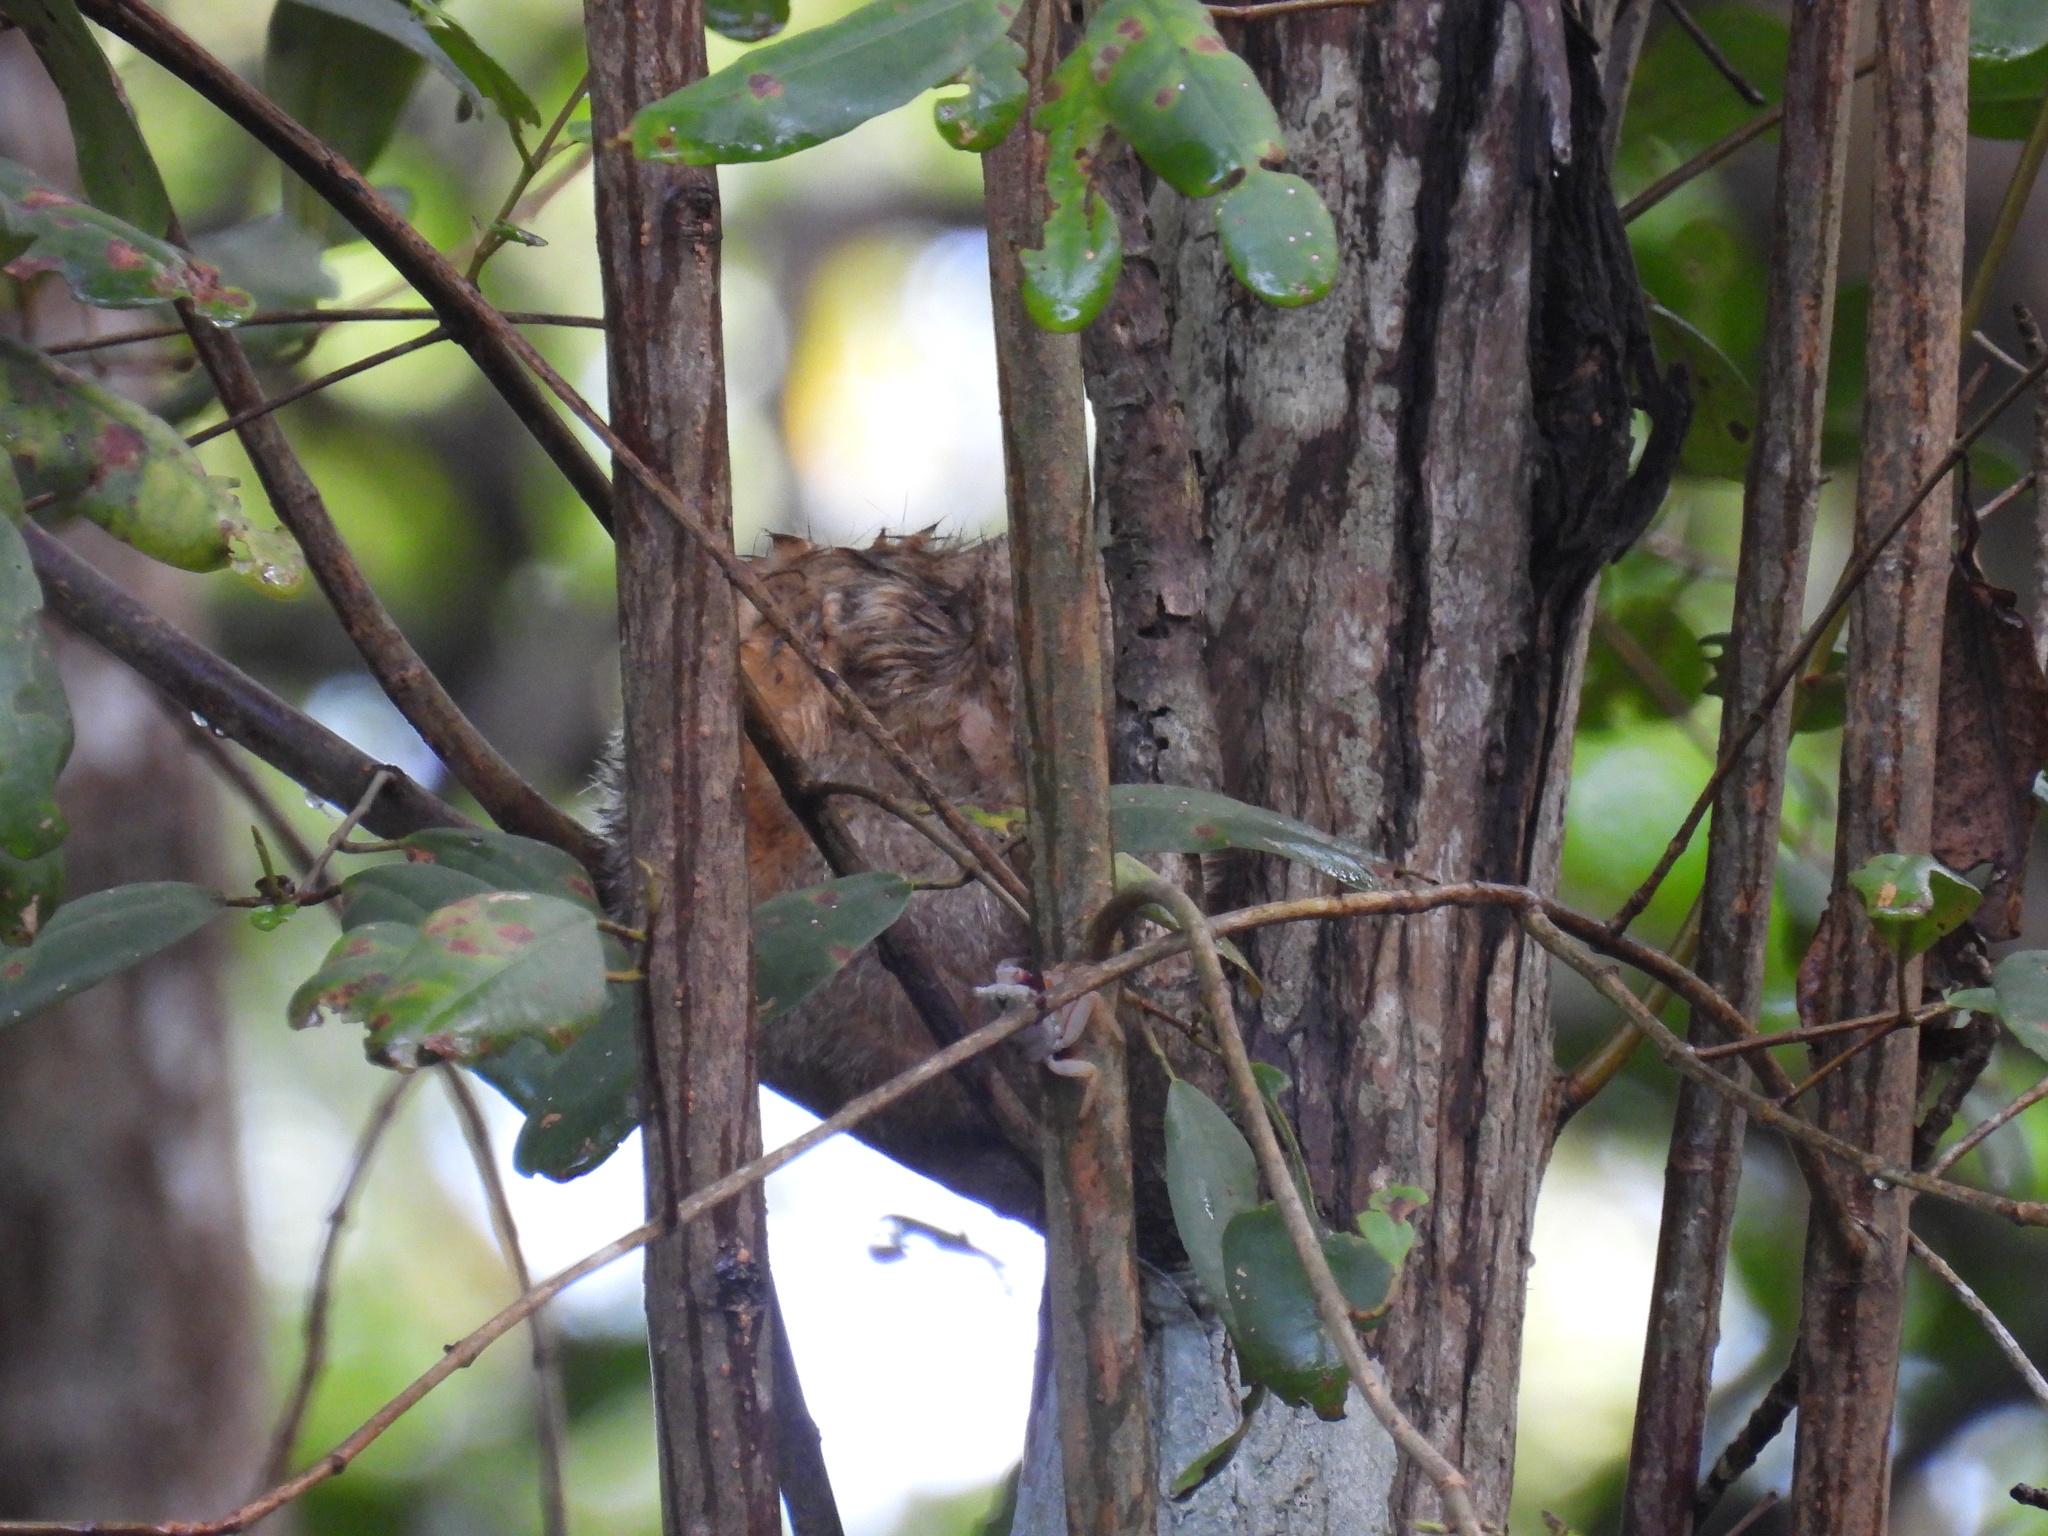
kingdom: Animalia
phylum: Chordata
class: Mammalia
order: Pilosa
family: Cyclopedidae
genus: Cyclopes
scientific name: Cyclopes didactylus
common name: Silky anteater
